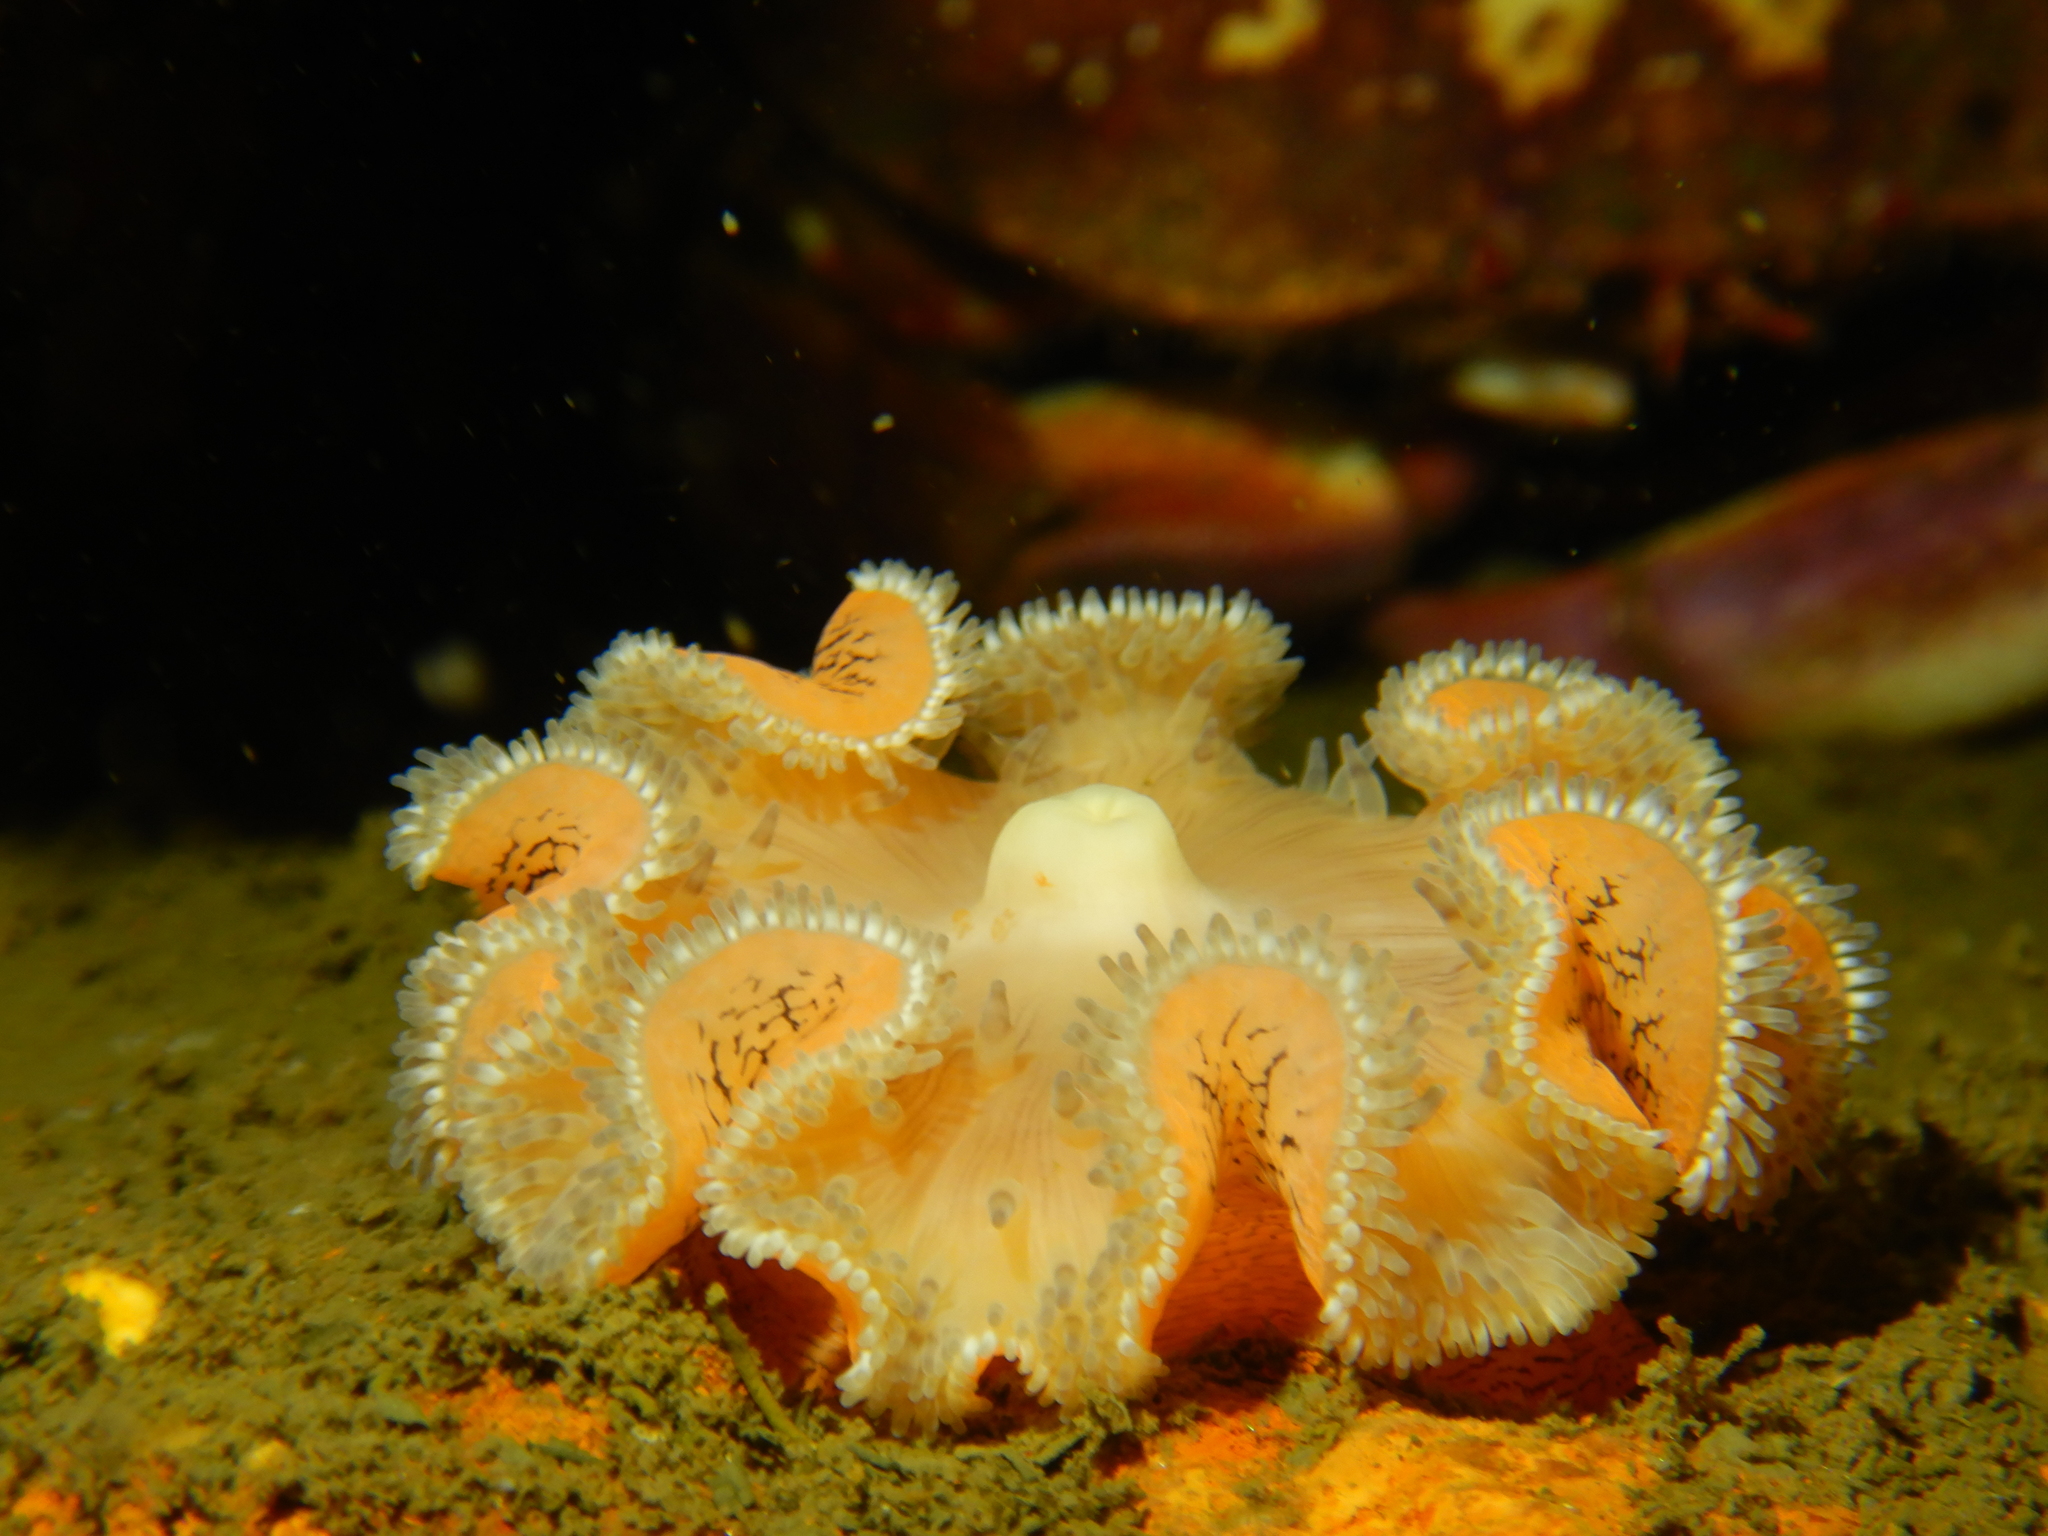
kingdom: Animalia
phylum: Cnidaria
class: Anthozoa
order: Actiniaria
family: Actinostolidae
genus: Antholoba
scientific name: Antholoba achates
